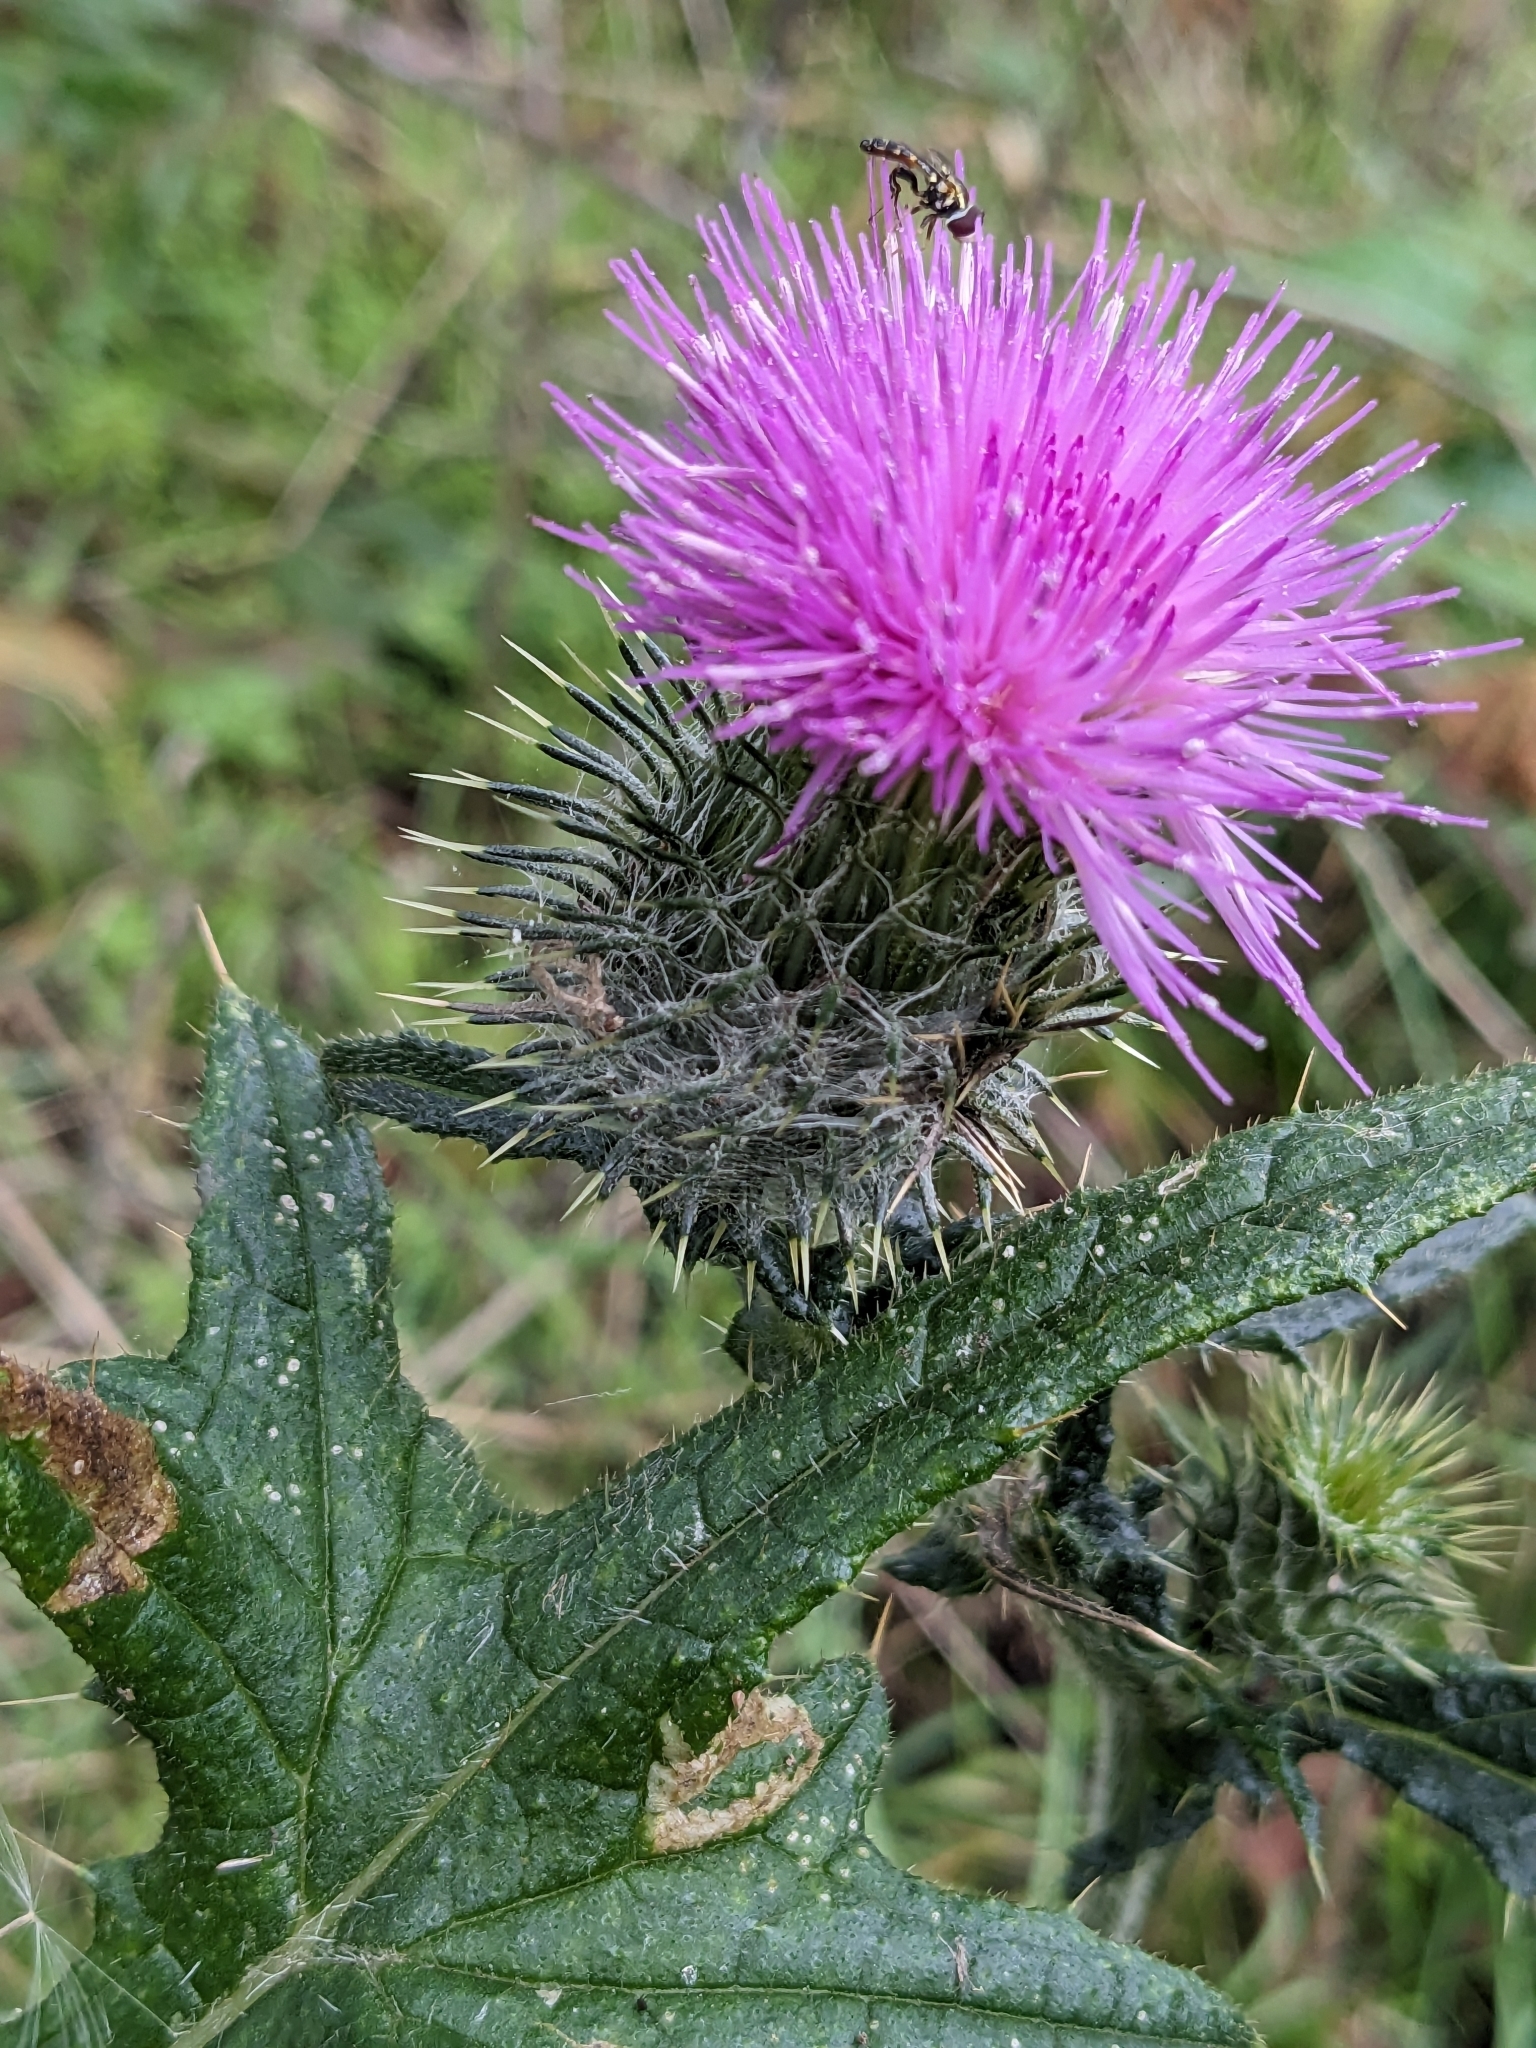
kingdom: Plantae
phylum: Tracheophyta
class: Magnoliopsida
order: Asterales
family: Asteraceae
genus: Cirsium
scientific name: Cirsium vulgare
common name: Bull thistle
